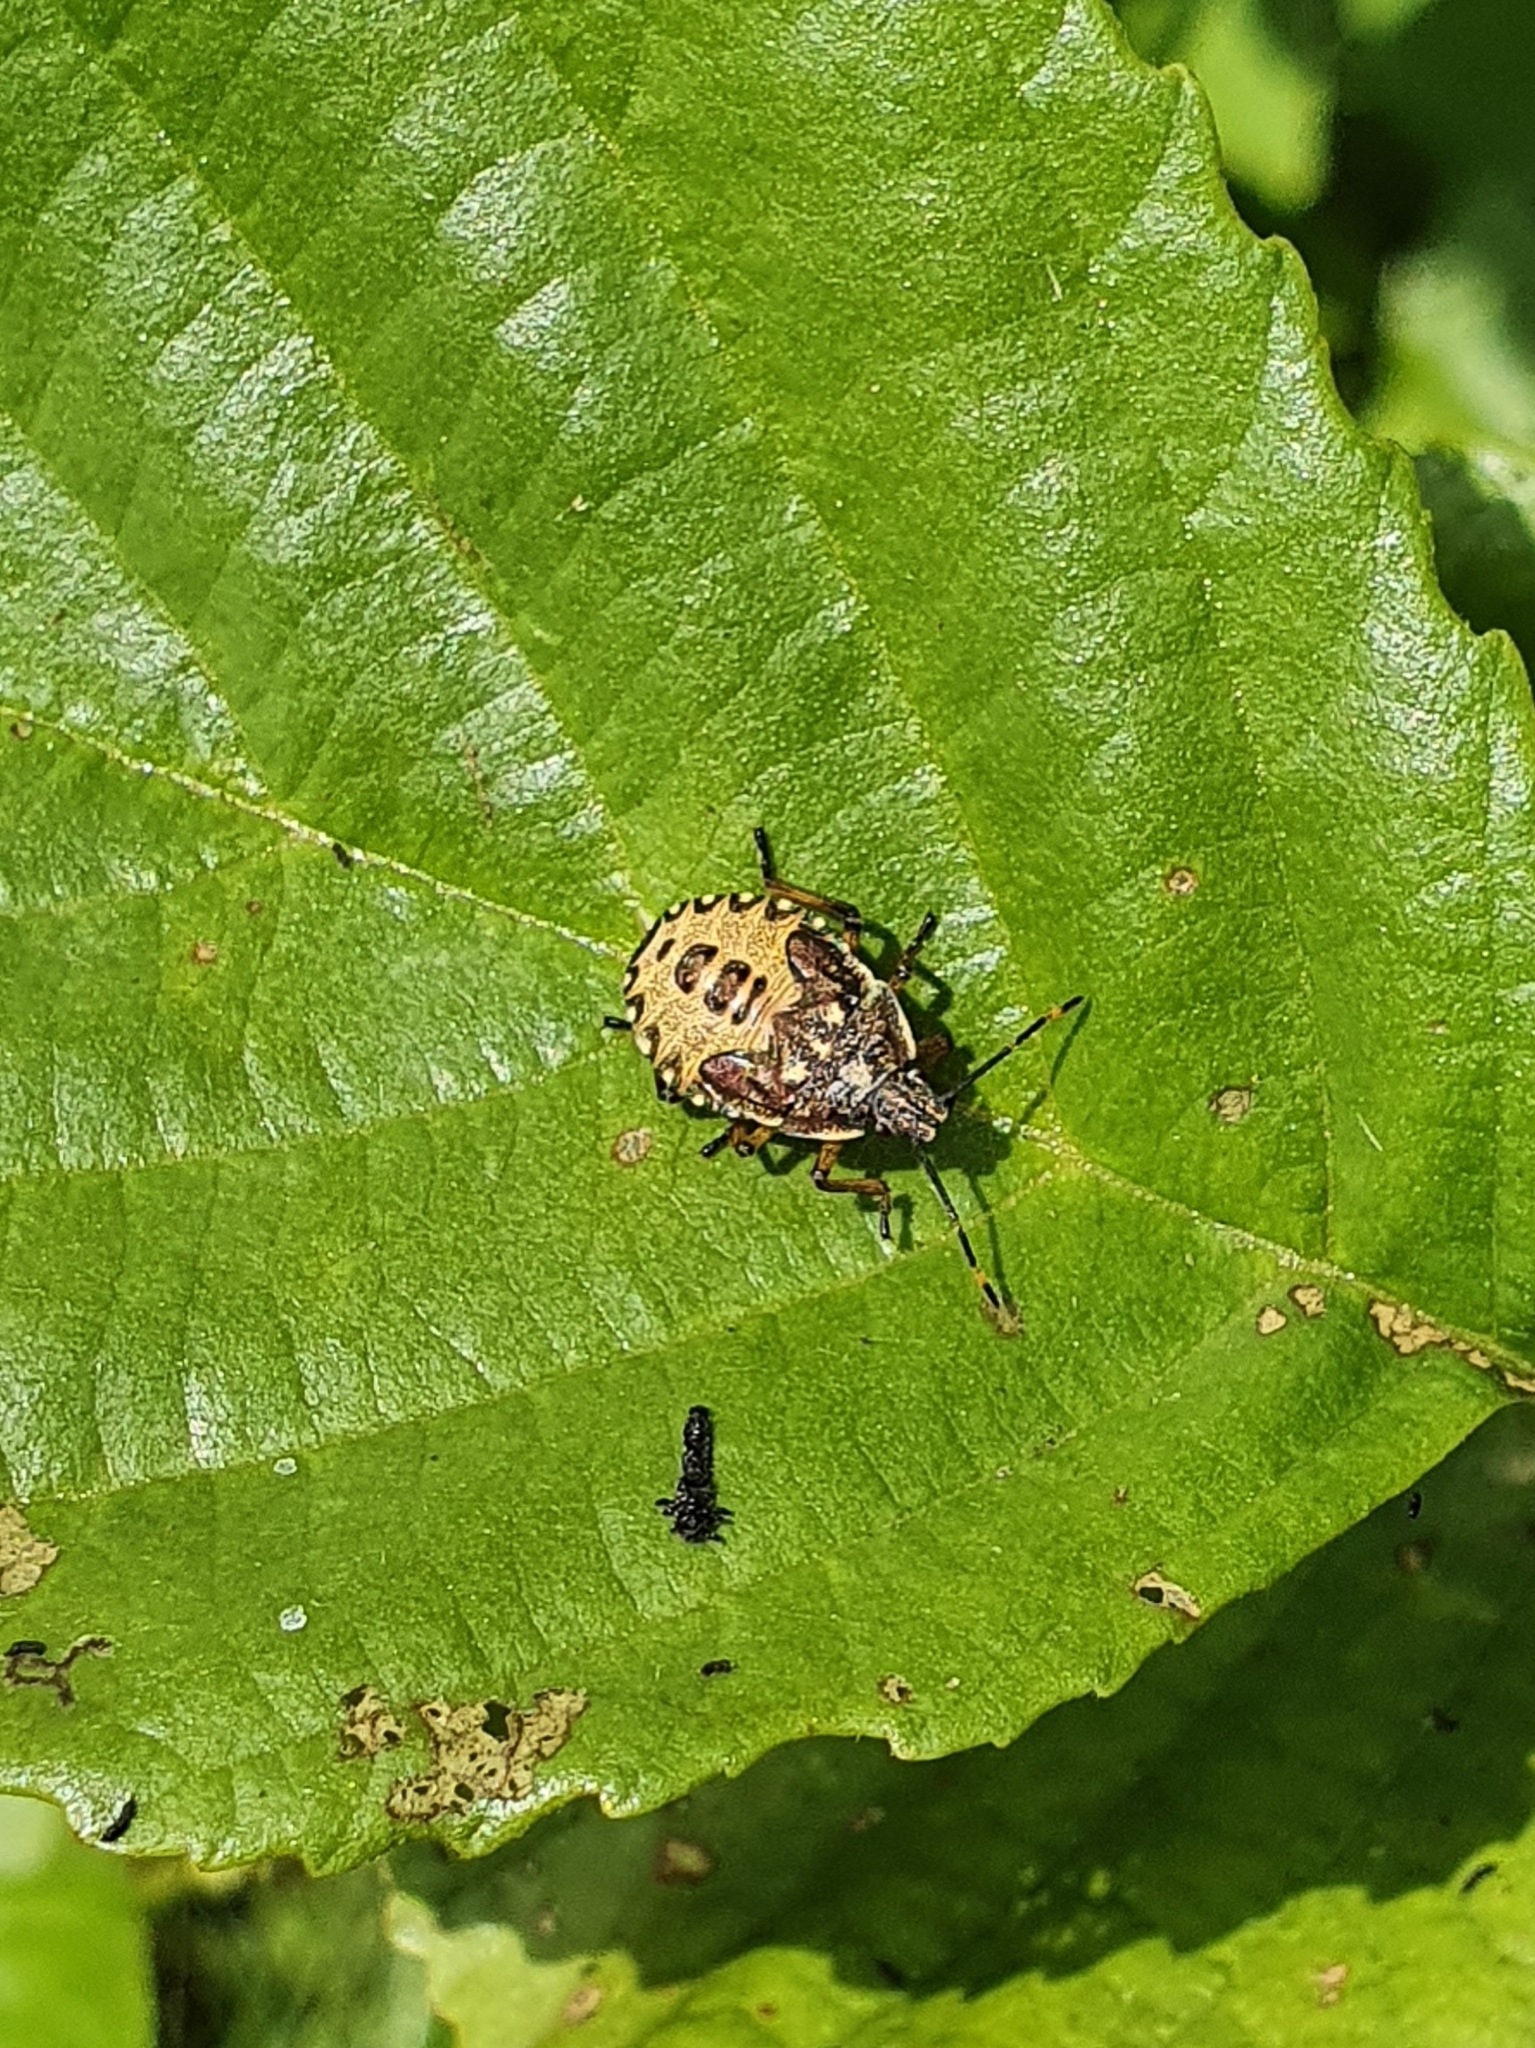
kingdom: Animalia
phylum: Arthropoda
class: Insecta
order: Hemiptera
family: Pentatomidae
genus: Arma
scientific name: Arma custos
